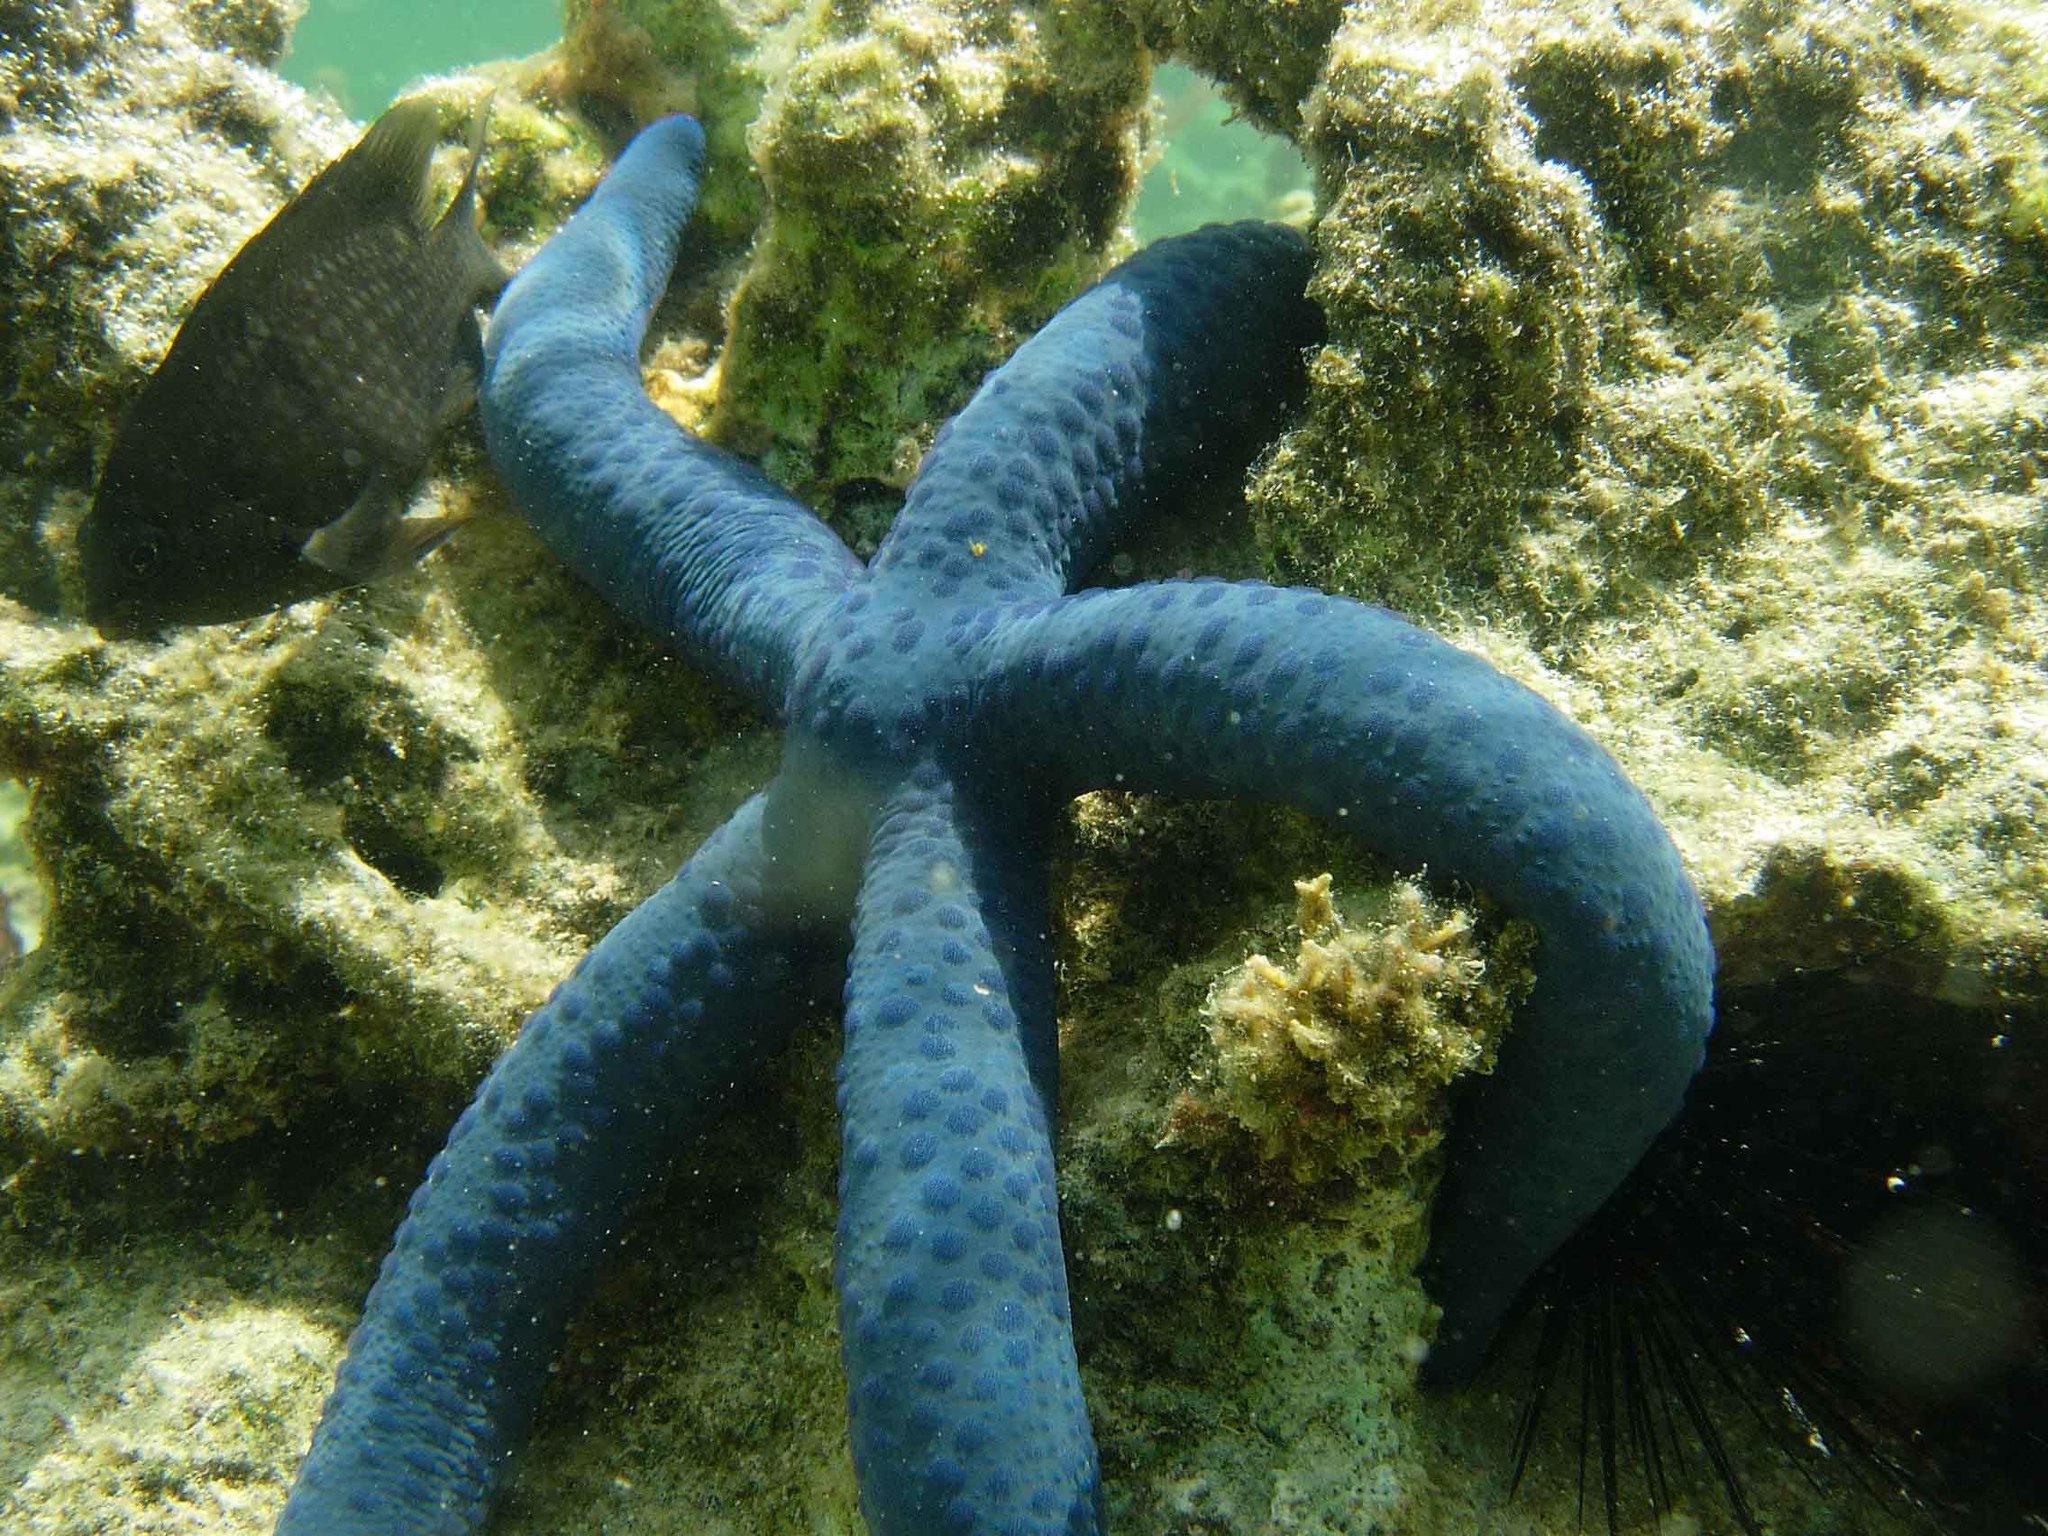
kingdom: Animalia
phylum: Echinodermata
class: Asteroidea
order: Valvatida
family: Ophidiasteridae
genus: Linckia
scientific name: Linckia laevigata
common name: Azure sea star
